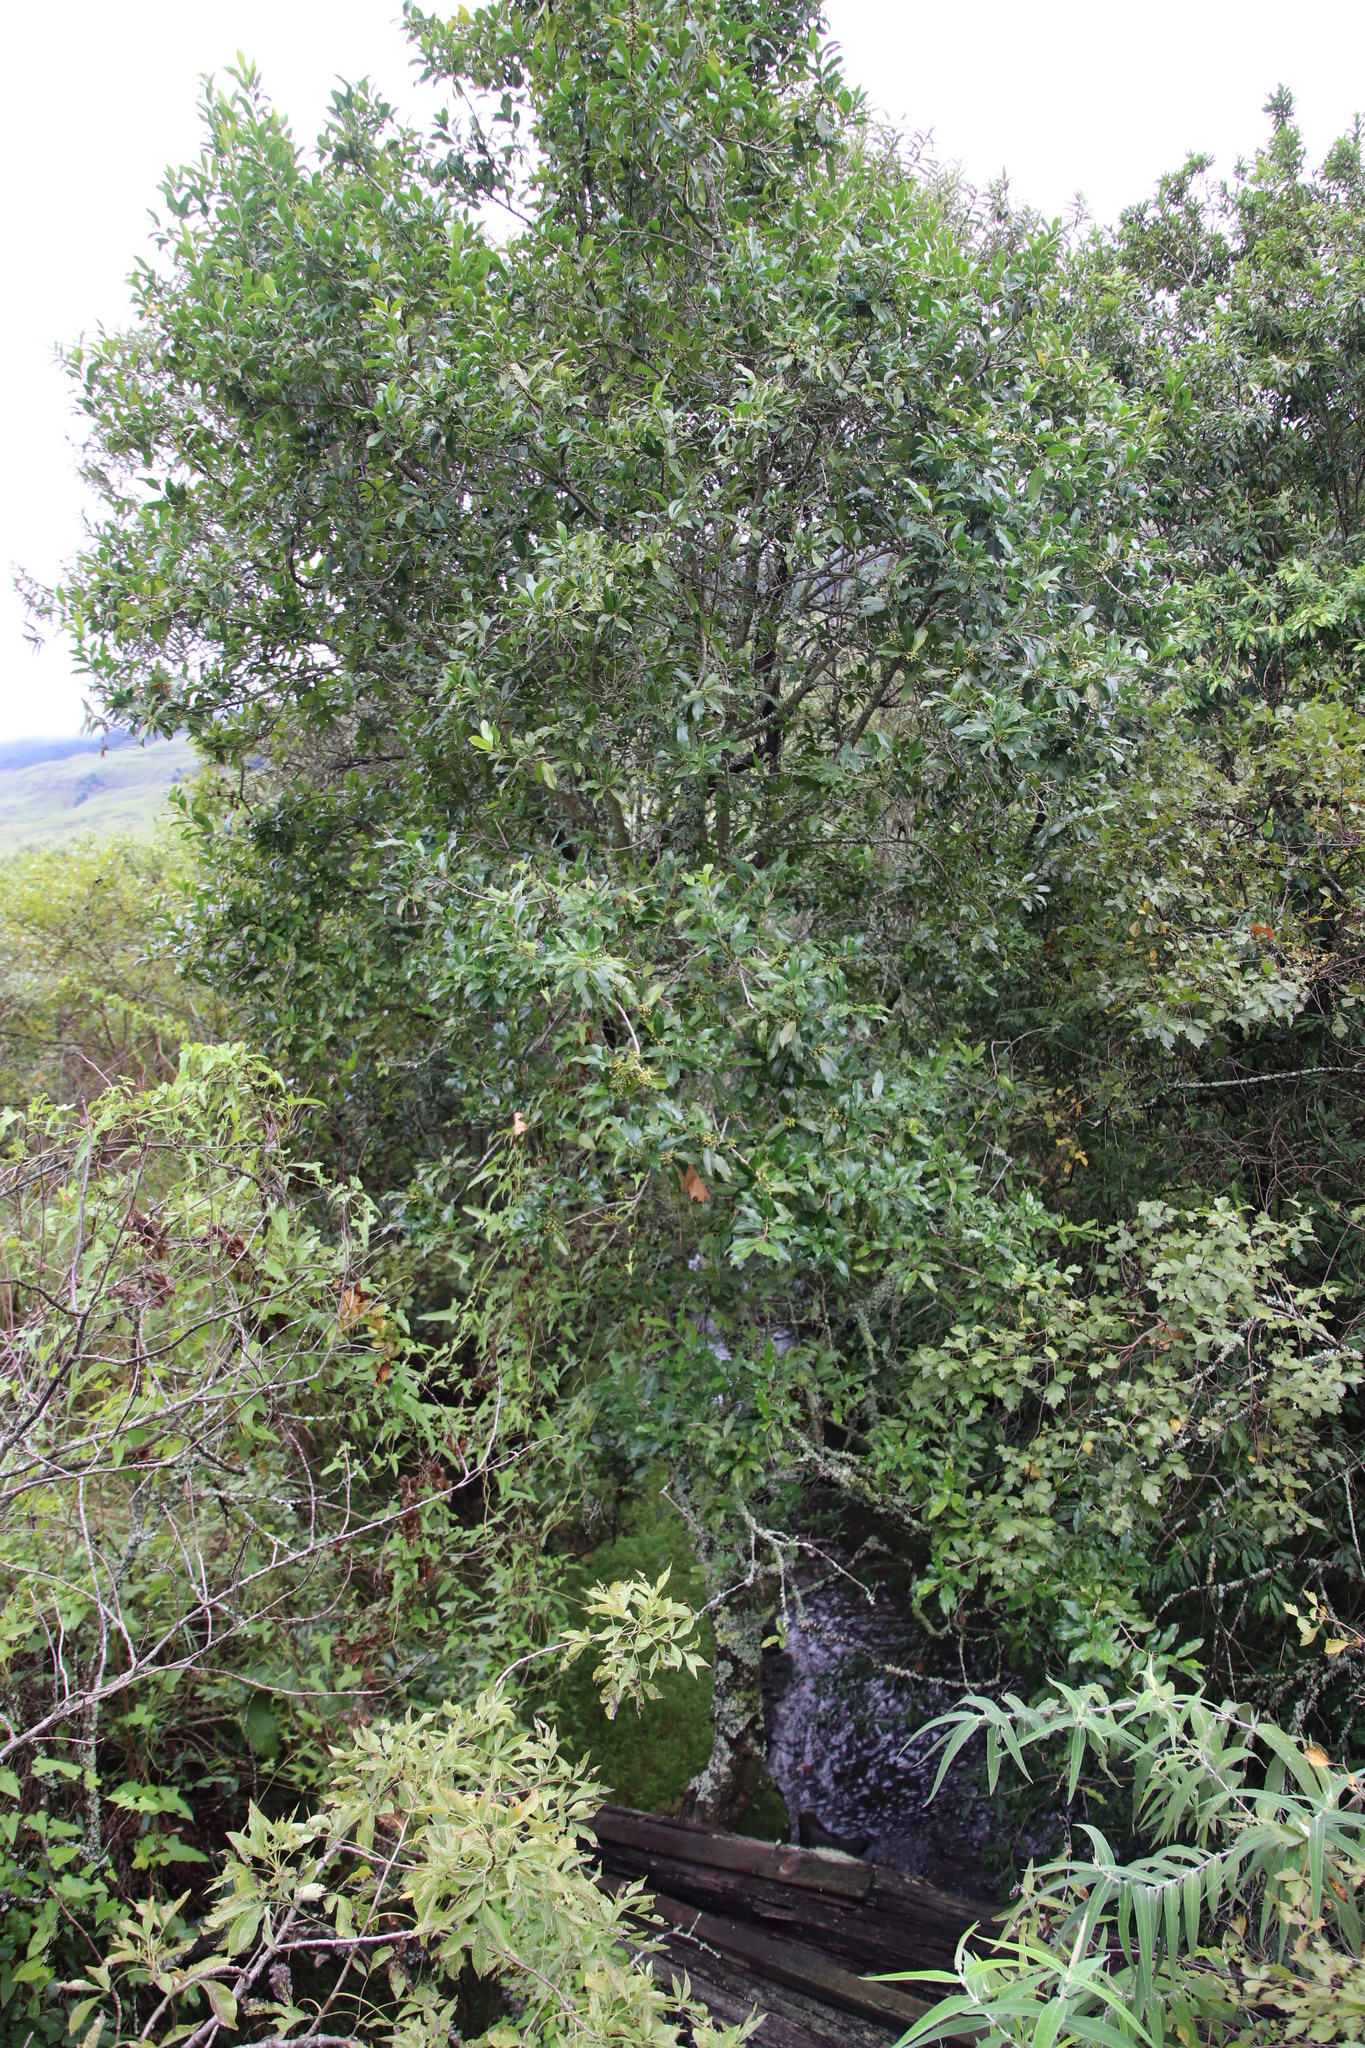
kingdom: Plantae
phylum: Tracheophyta
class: Magnoliopsida
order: Aquifoliales
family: Aquifoliaceae
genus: Ilex
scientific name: Ilex mitis
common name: African holly
